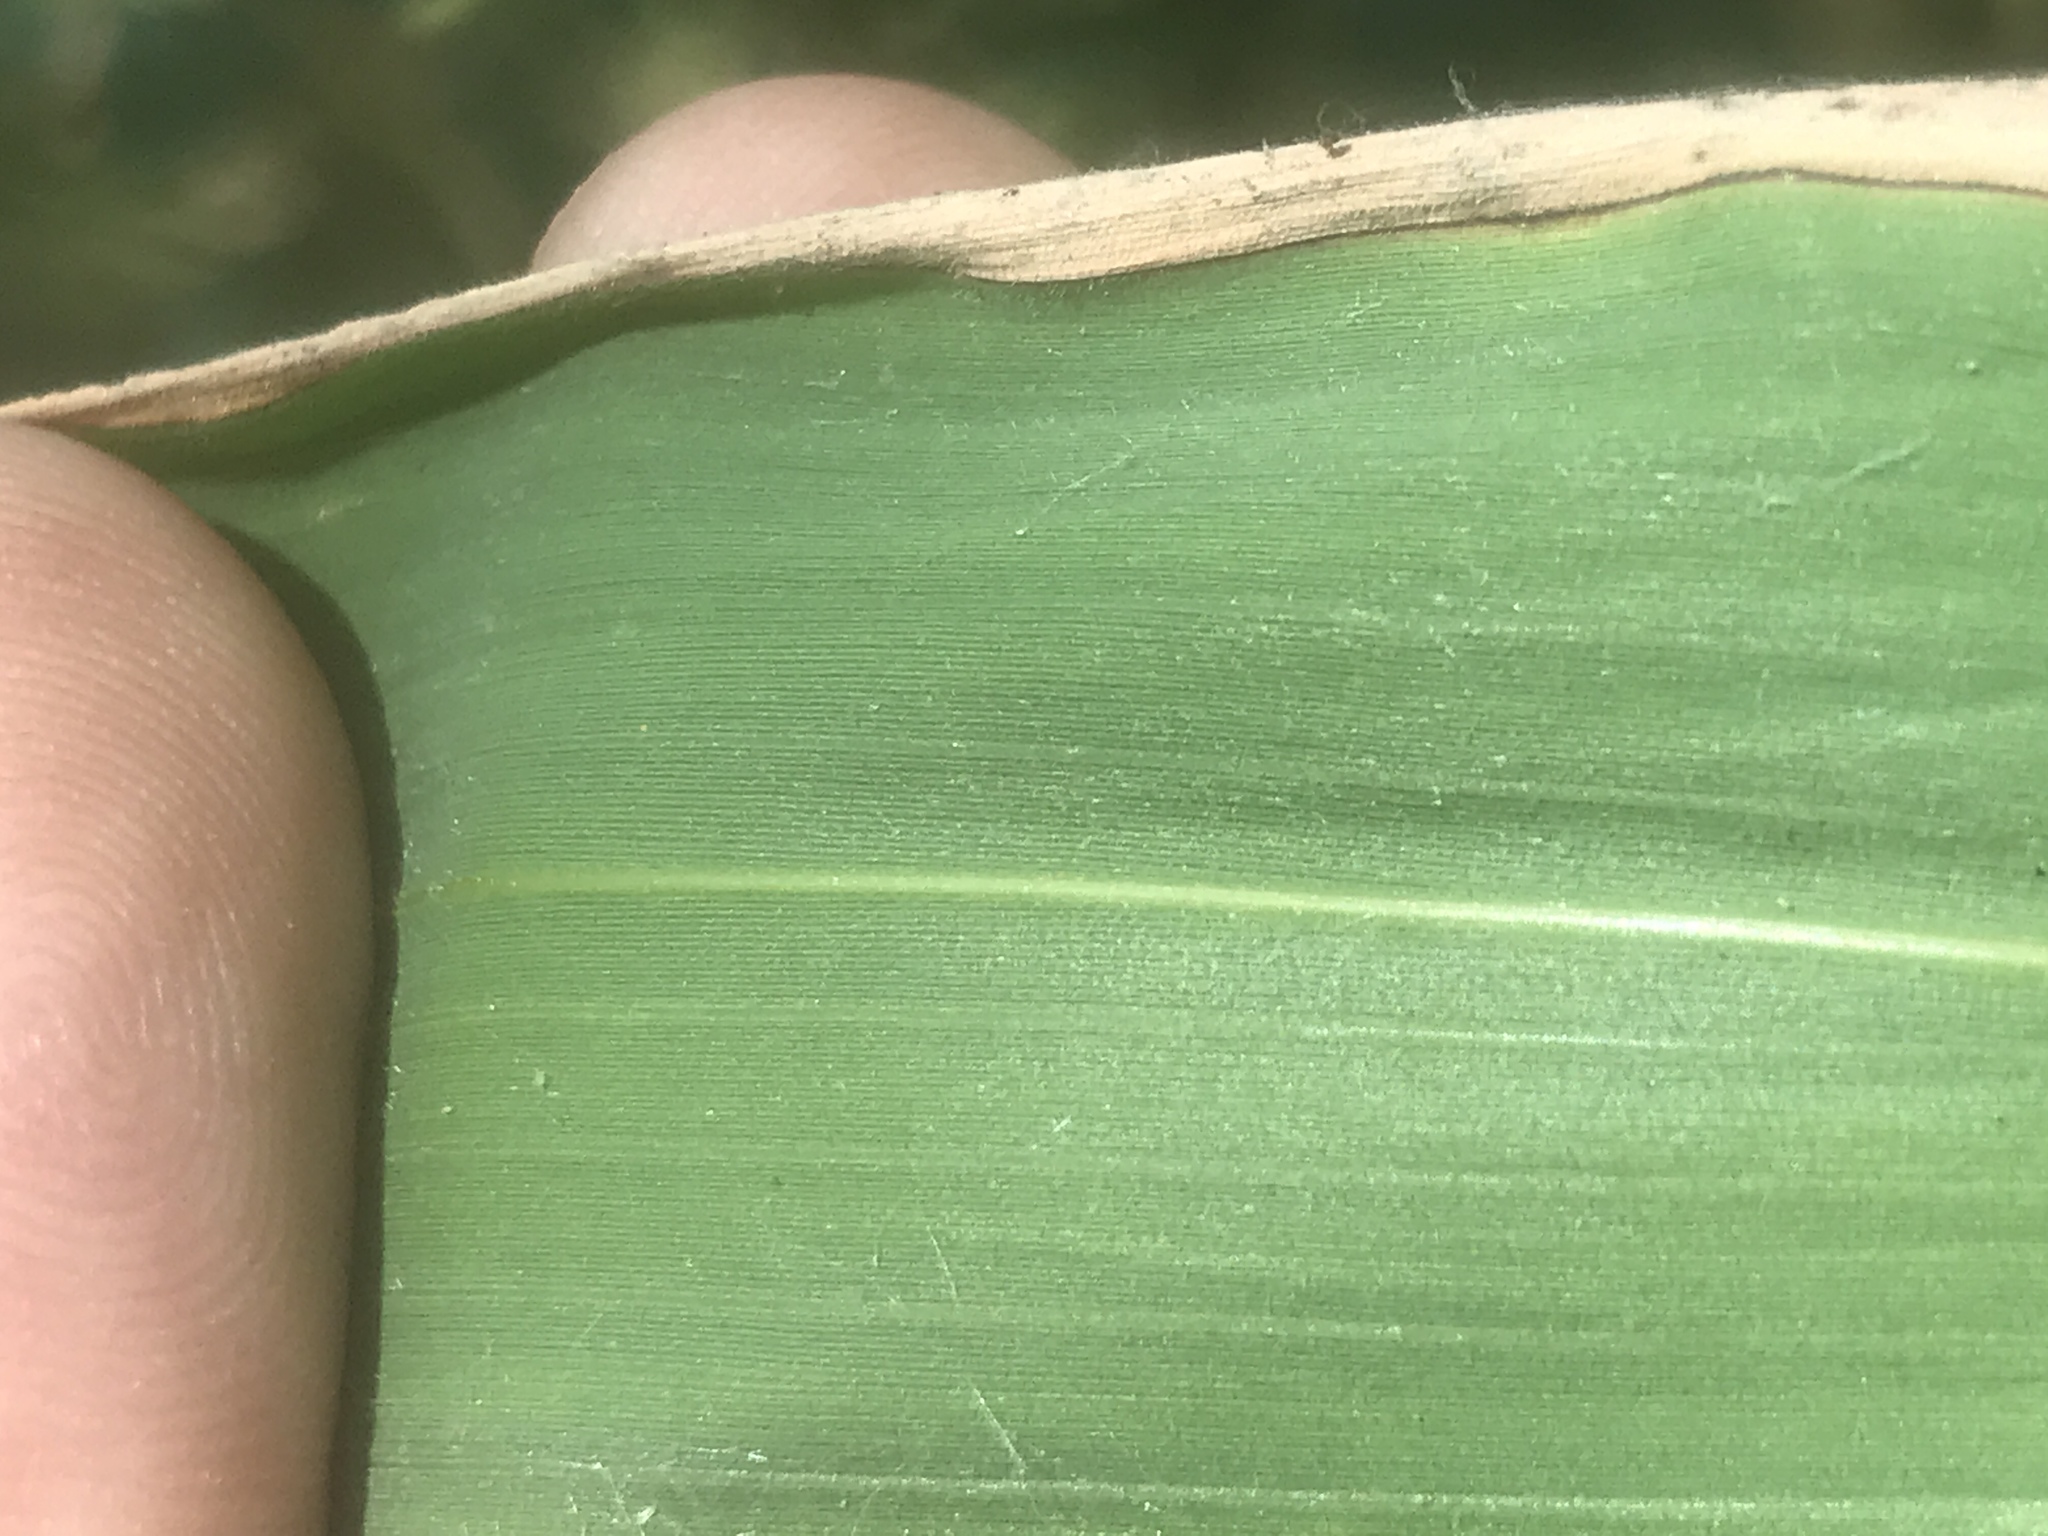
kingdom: Plantae
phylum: Tracheophyta
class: Liliopsida
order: Poales
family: Poaceae
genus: Arundinaria
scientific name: Arundinaria gigantea
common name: Giant cane
